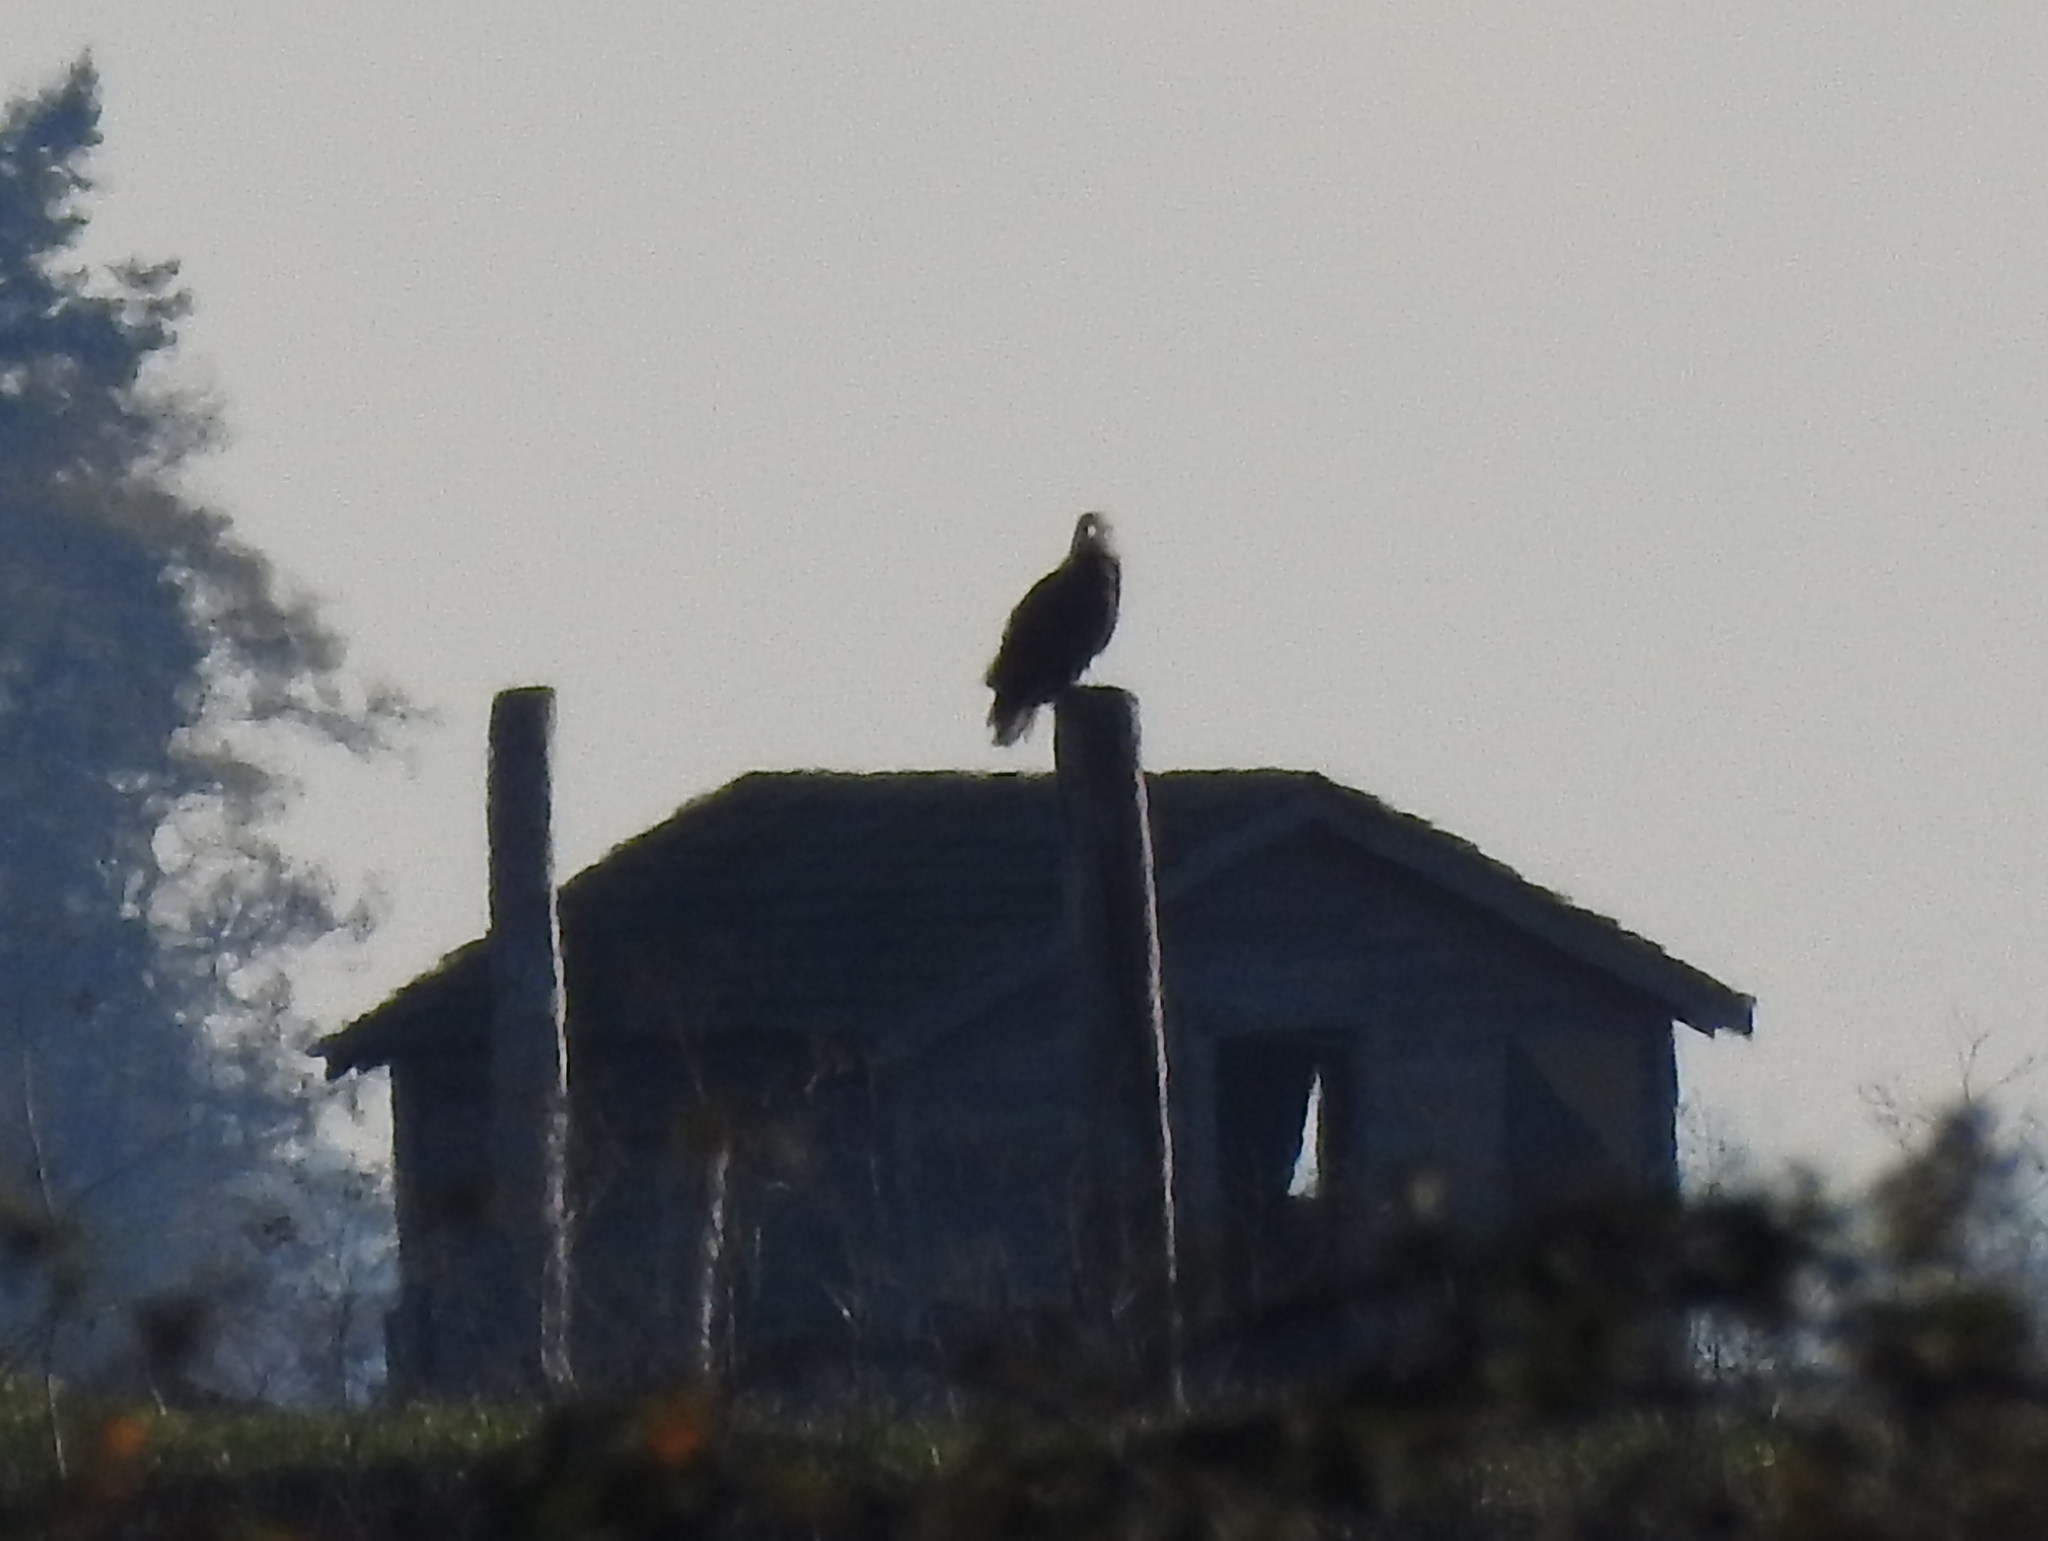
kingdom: Animalia
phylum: Chordata
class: Aves
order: Accipitriformes
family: Accipitridae
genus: Haliaeetus
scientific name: Haliaeetus leucocephalus
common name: Bald eagle
